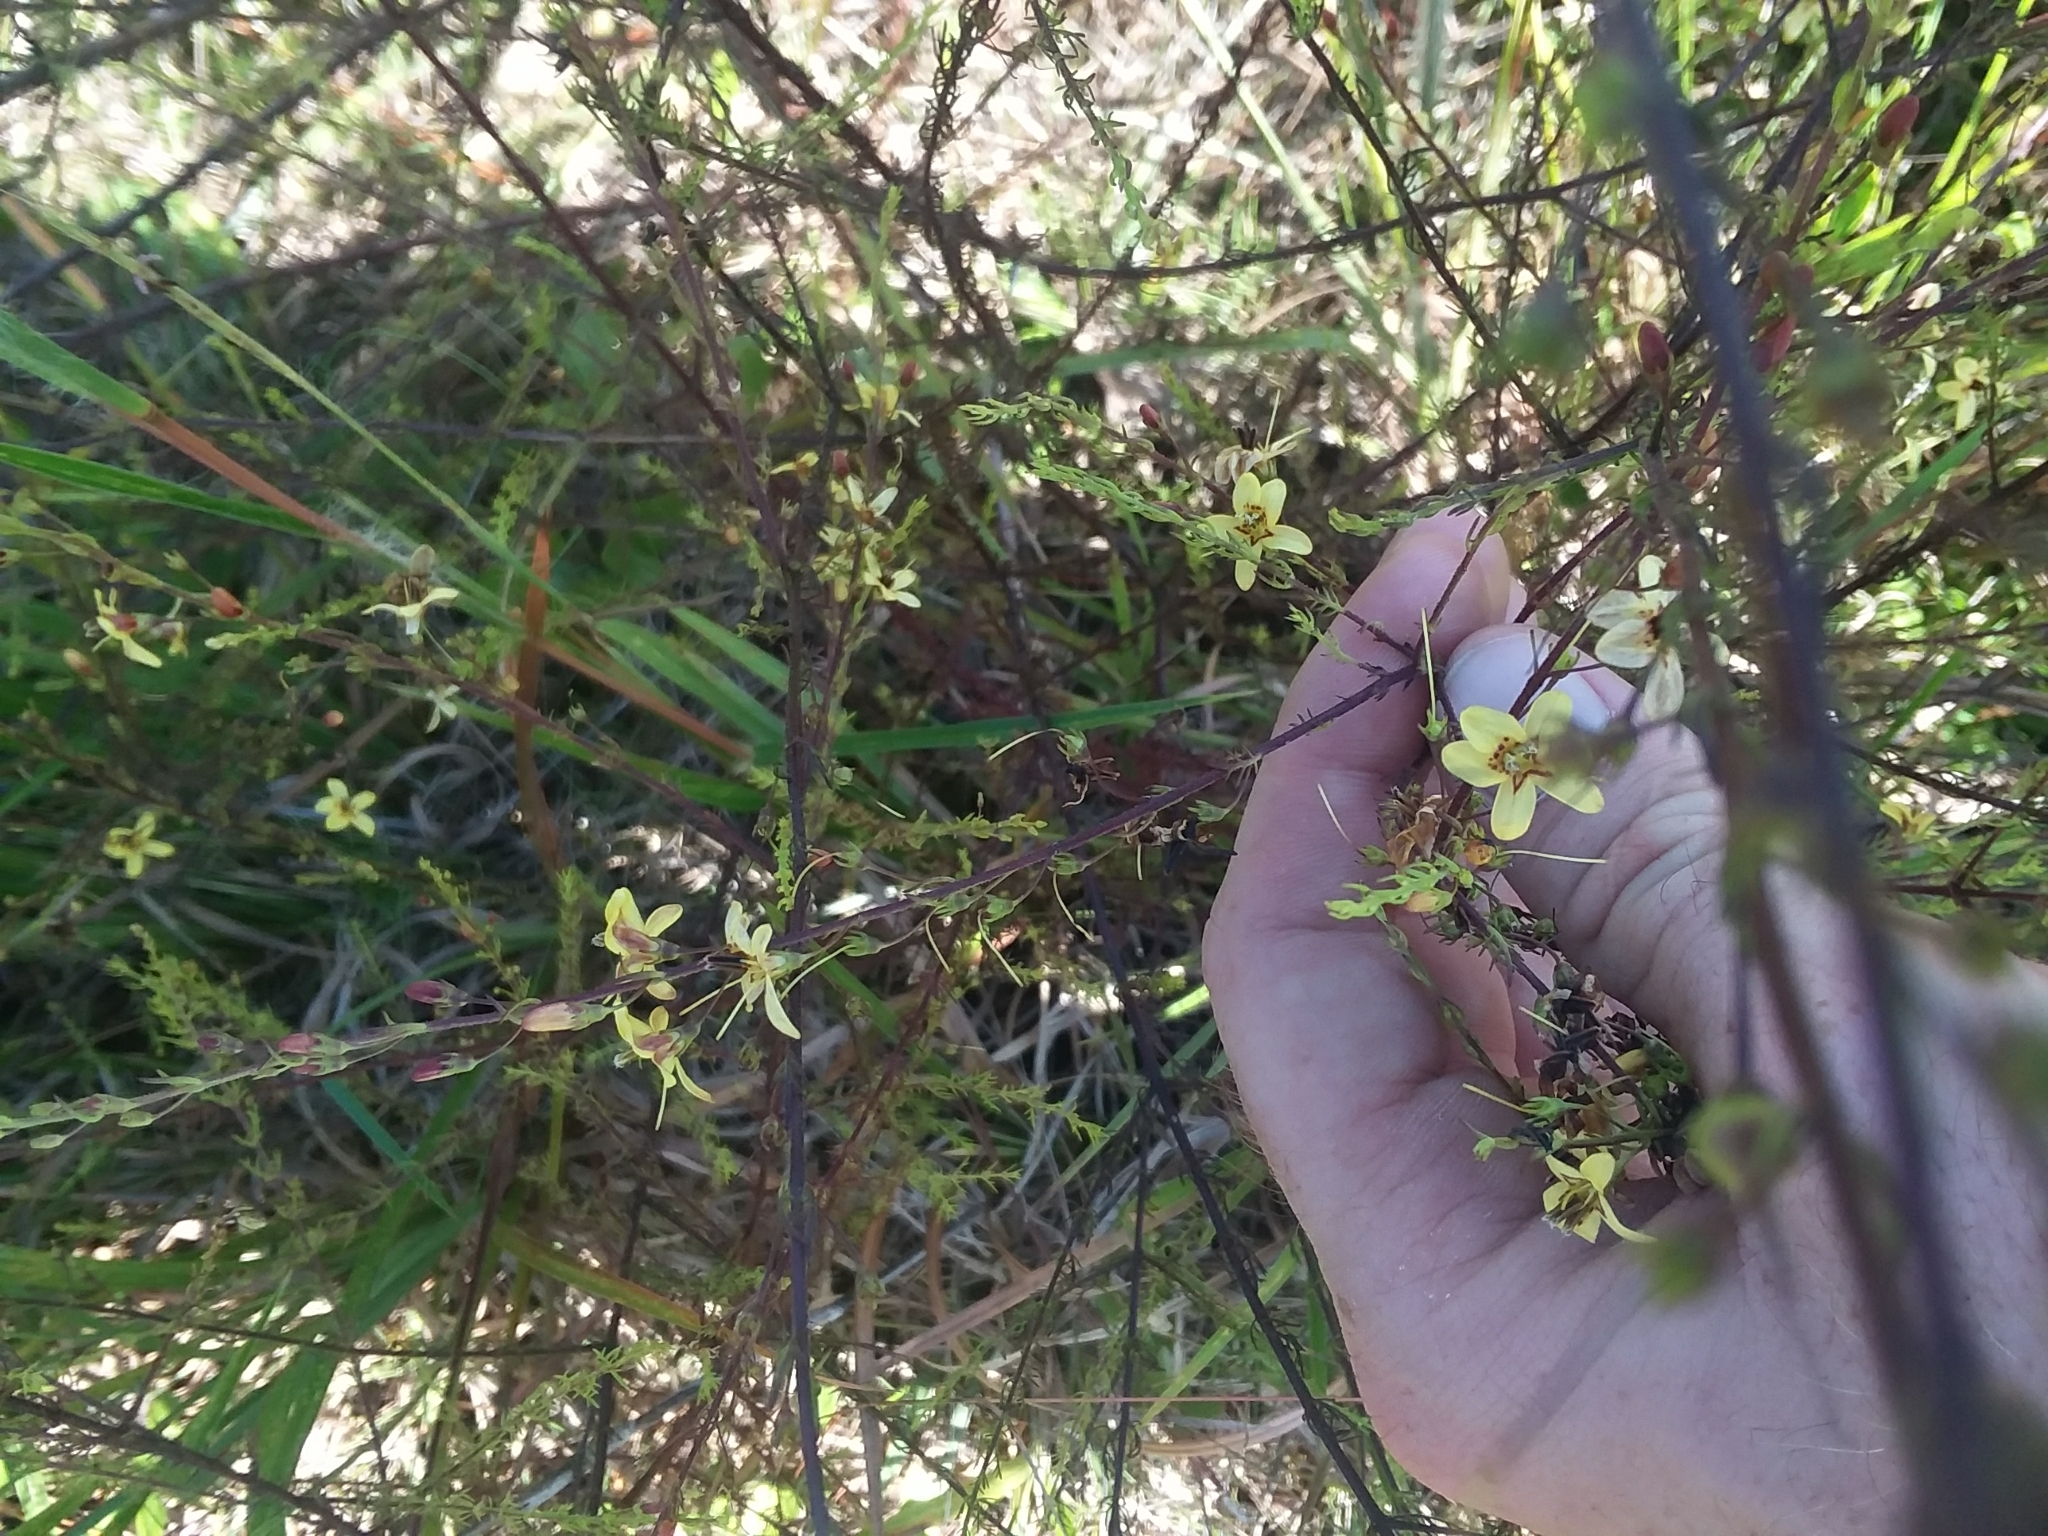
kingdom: Plantae
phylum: Tracheophyta
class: Magnoliopsida
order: Lamiales
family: Orobanchaceae
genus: Seymeria
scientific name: Seymeria cassioides
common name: Yaupon black-senna
